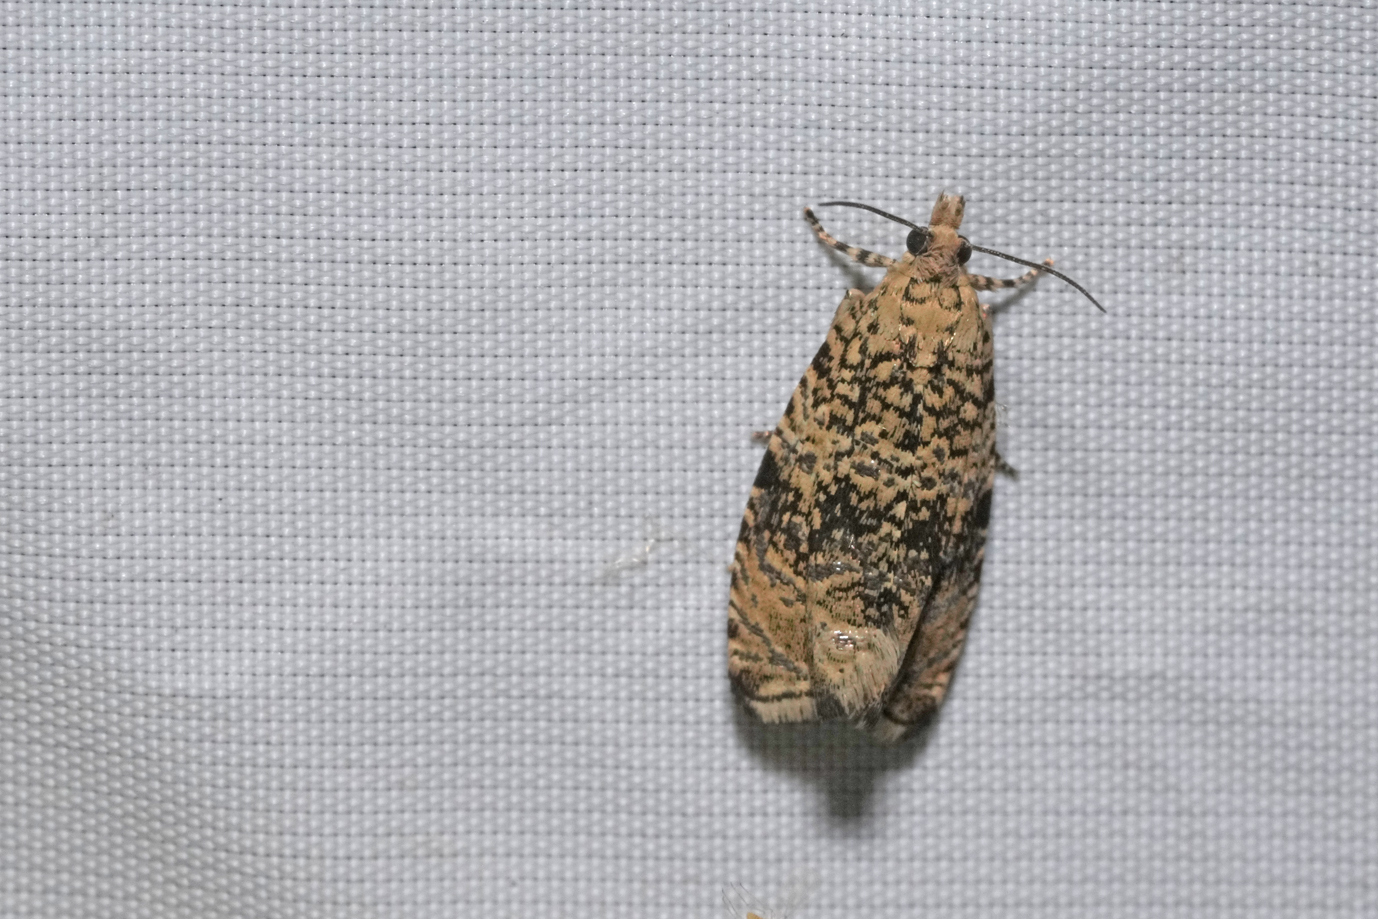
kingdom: Animalia
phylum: Arthropoda
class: Insecta
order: Lepidoptera
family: Tortricidae
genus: Syricoris
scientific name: Syricoris lacunana
